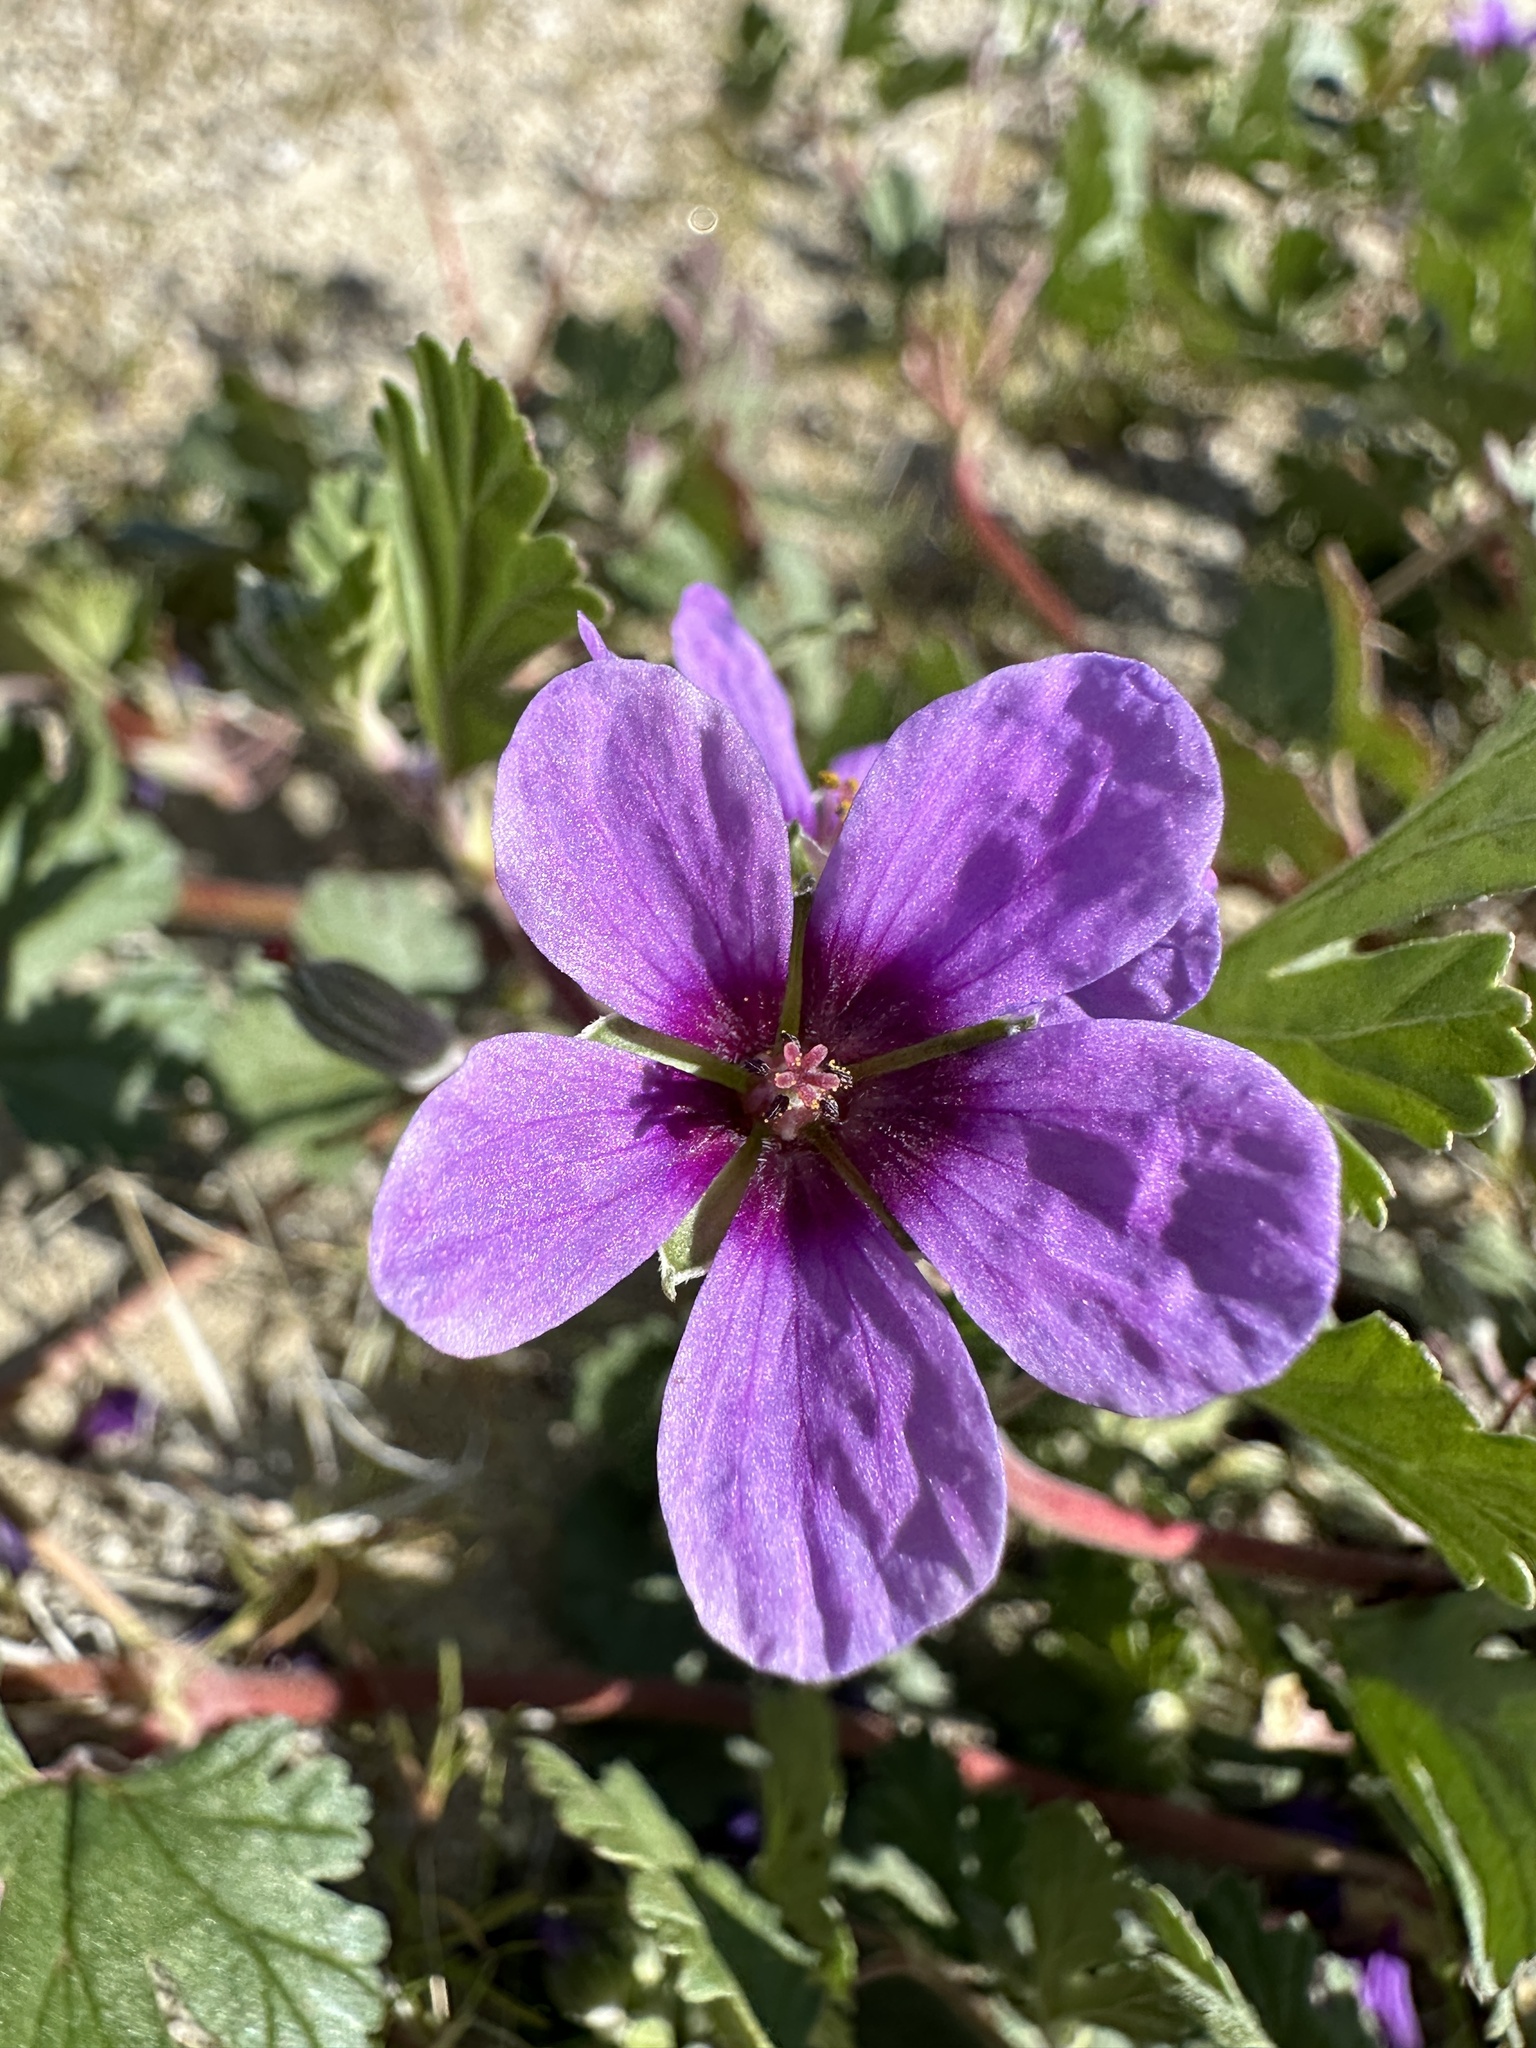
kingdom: Plantae
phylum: Tracheophyta
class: Magnoliopsida
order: Geraniales
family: Geraniaceae
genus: Erodium
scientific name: Erodium texanum
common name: Texas stork's-bill
